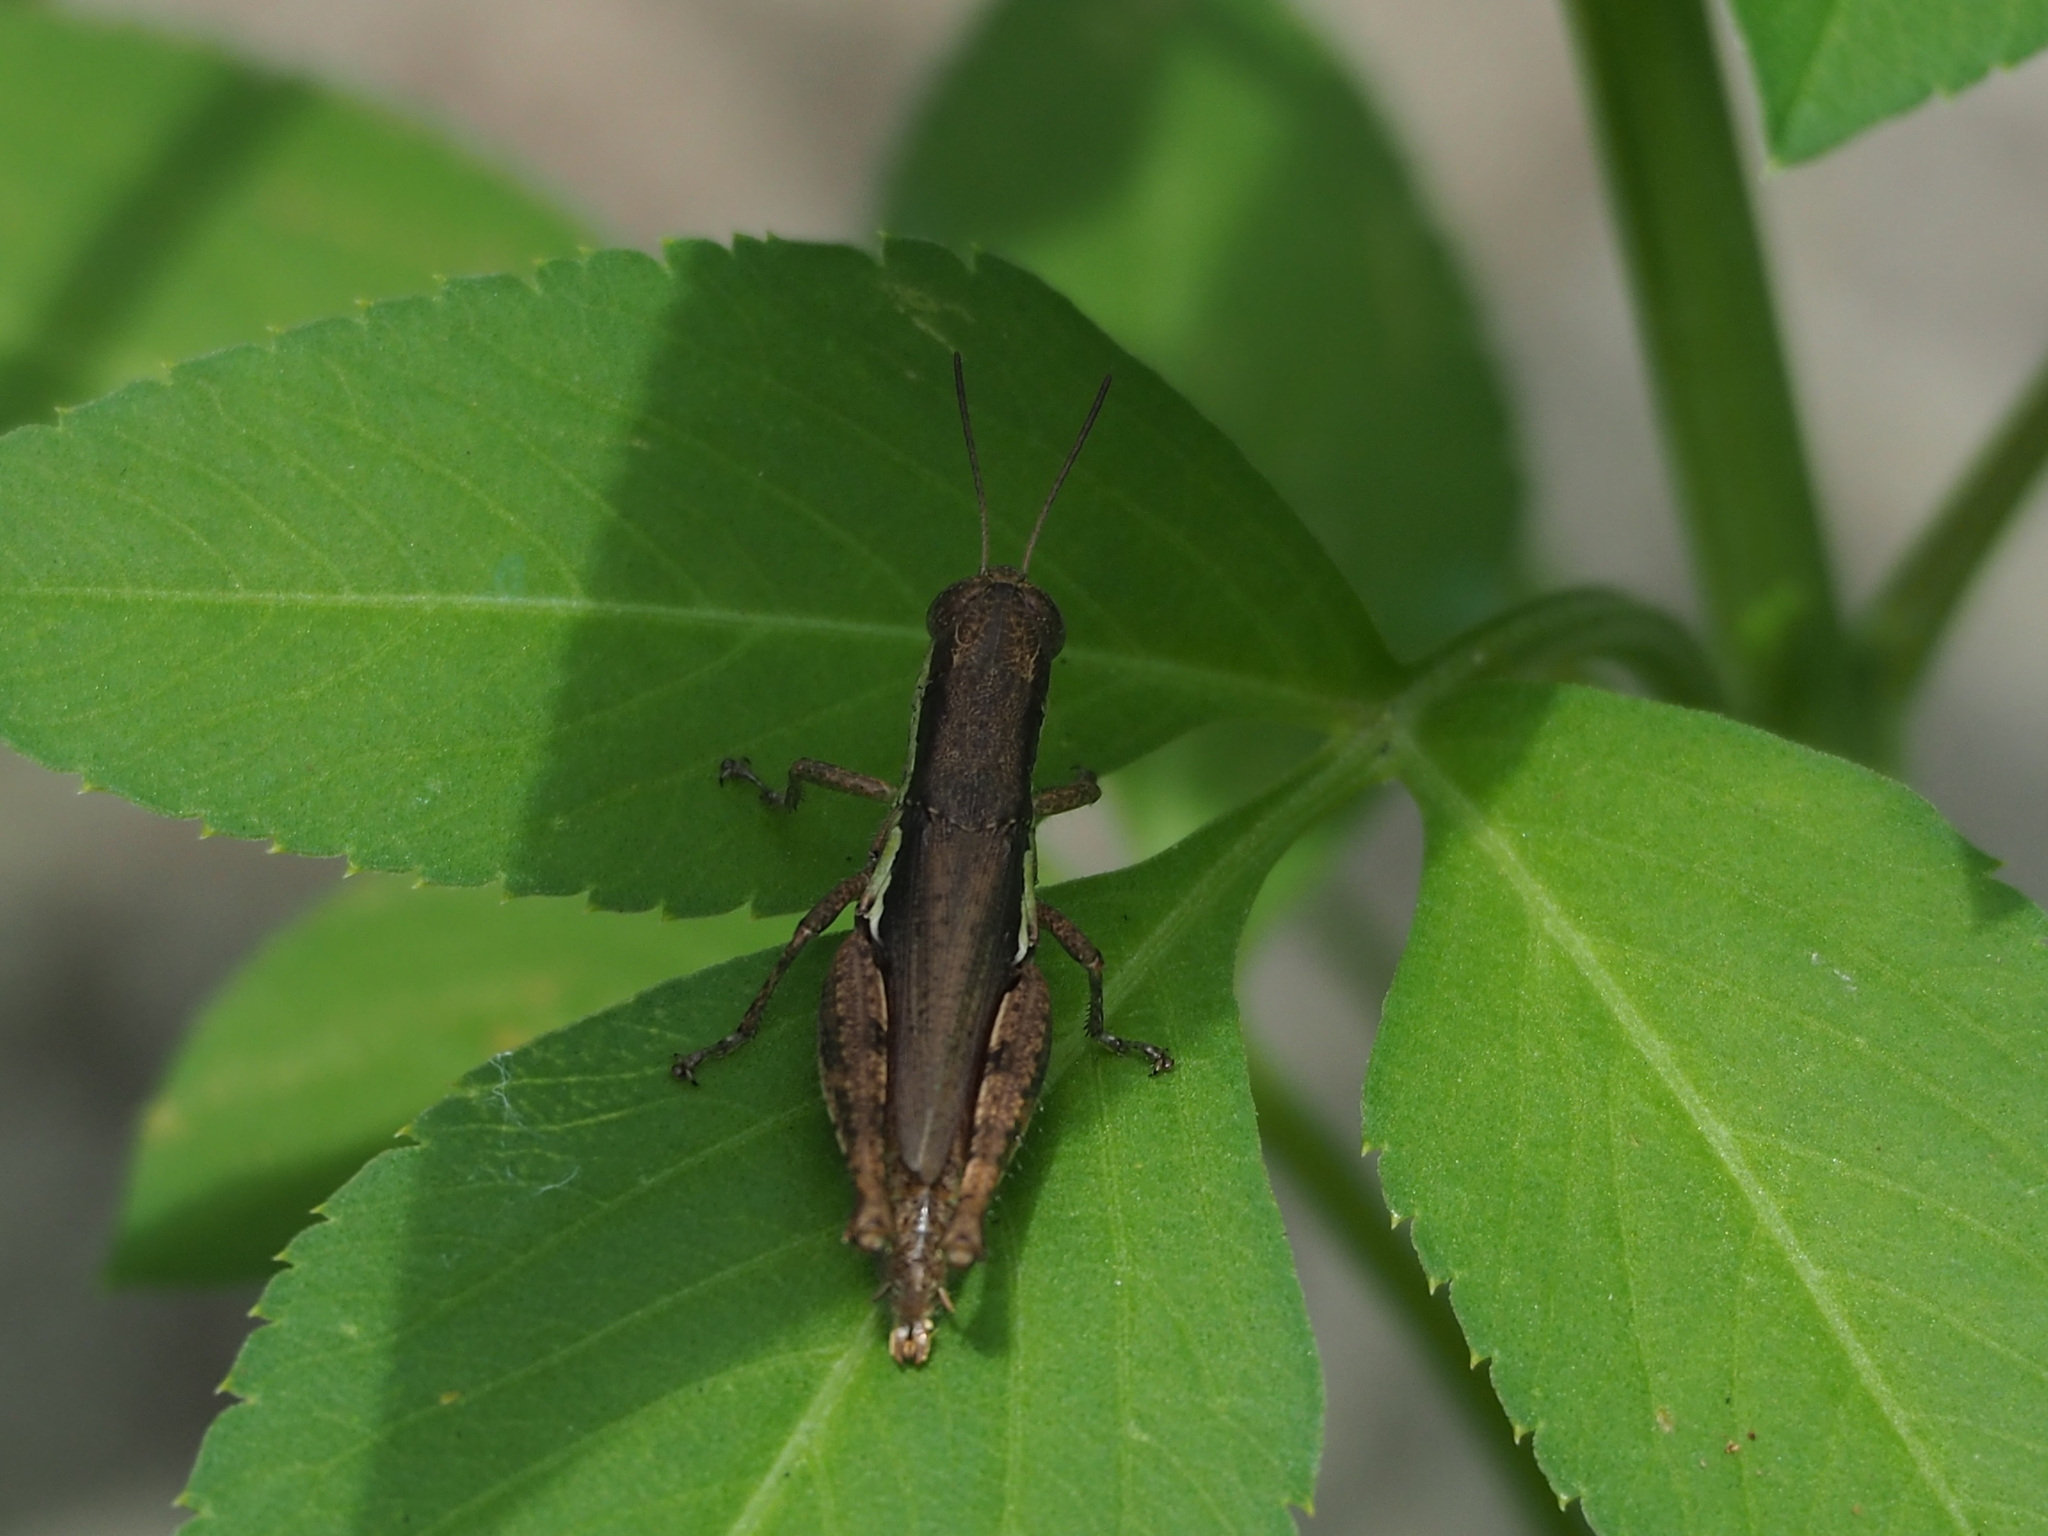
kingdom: Animalia
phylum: Arthropoda
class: Insecta
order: Orthoptera
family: Acrididae
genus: Pseudoxya
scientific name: Pseudoxya diminuta
